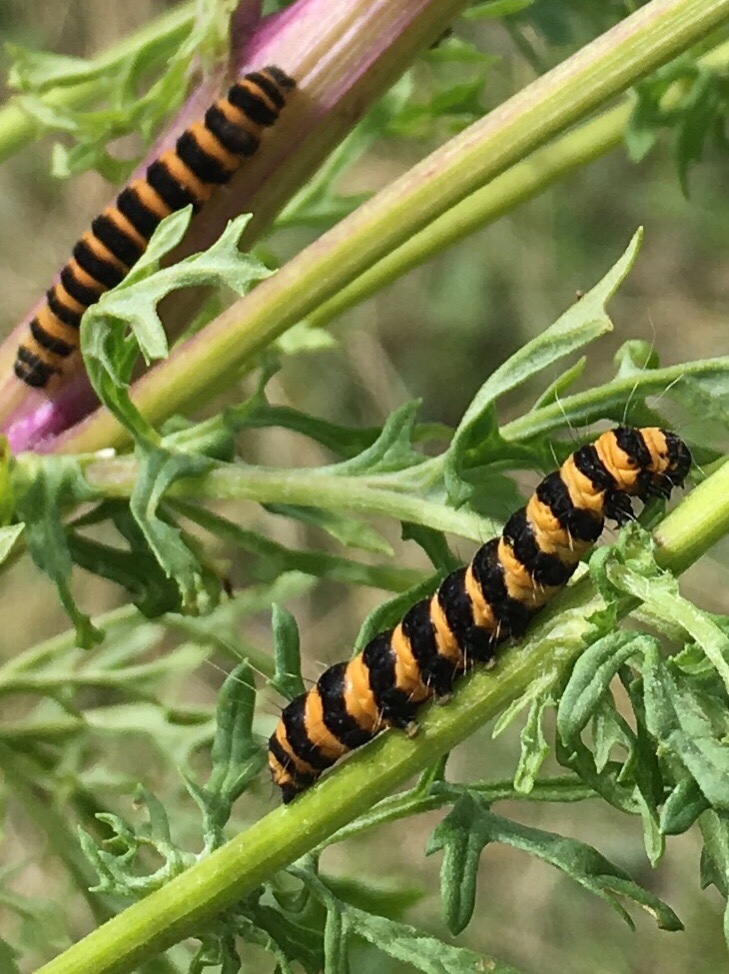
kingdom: Animalia
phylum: Arthropoda
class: Insecta
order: Lepidoptera
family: Erebidae
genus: Tyria
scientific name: Tyria jacobaeae
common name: Cinnabar
